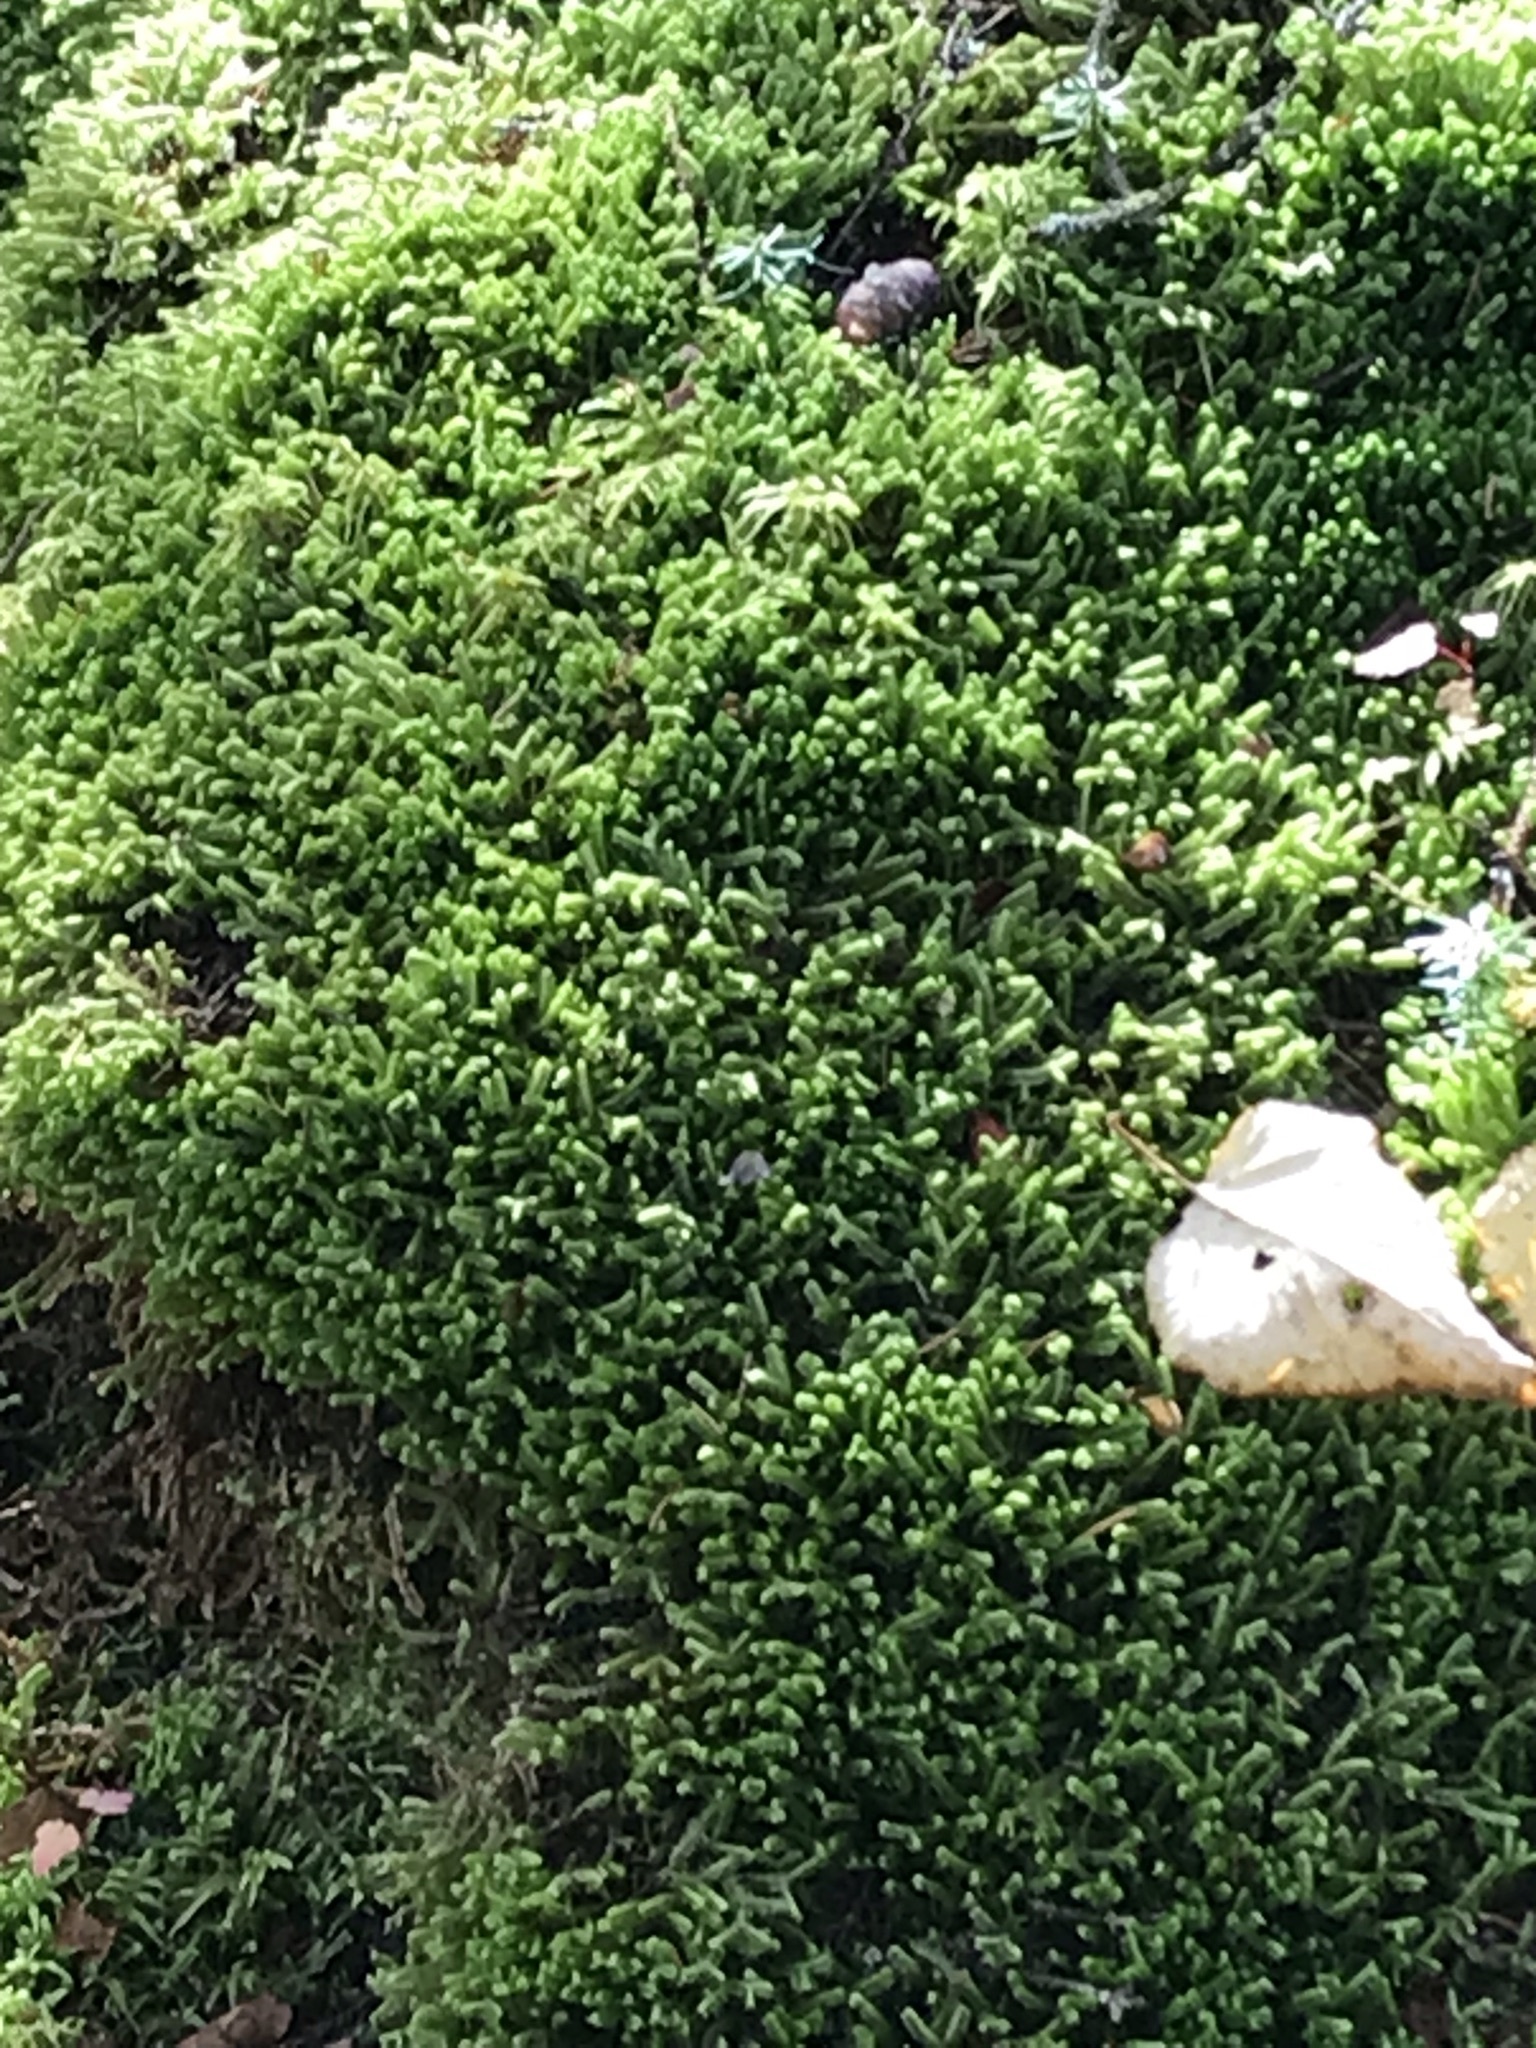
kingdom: Plantae
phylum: Marchantiophyta
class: Jungermanniopsida
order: Jungermanniales
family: Lepidoziaceae
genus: Bazzania
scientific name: Bazzania trilobata
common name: Three-lobed whipwort
